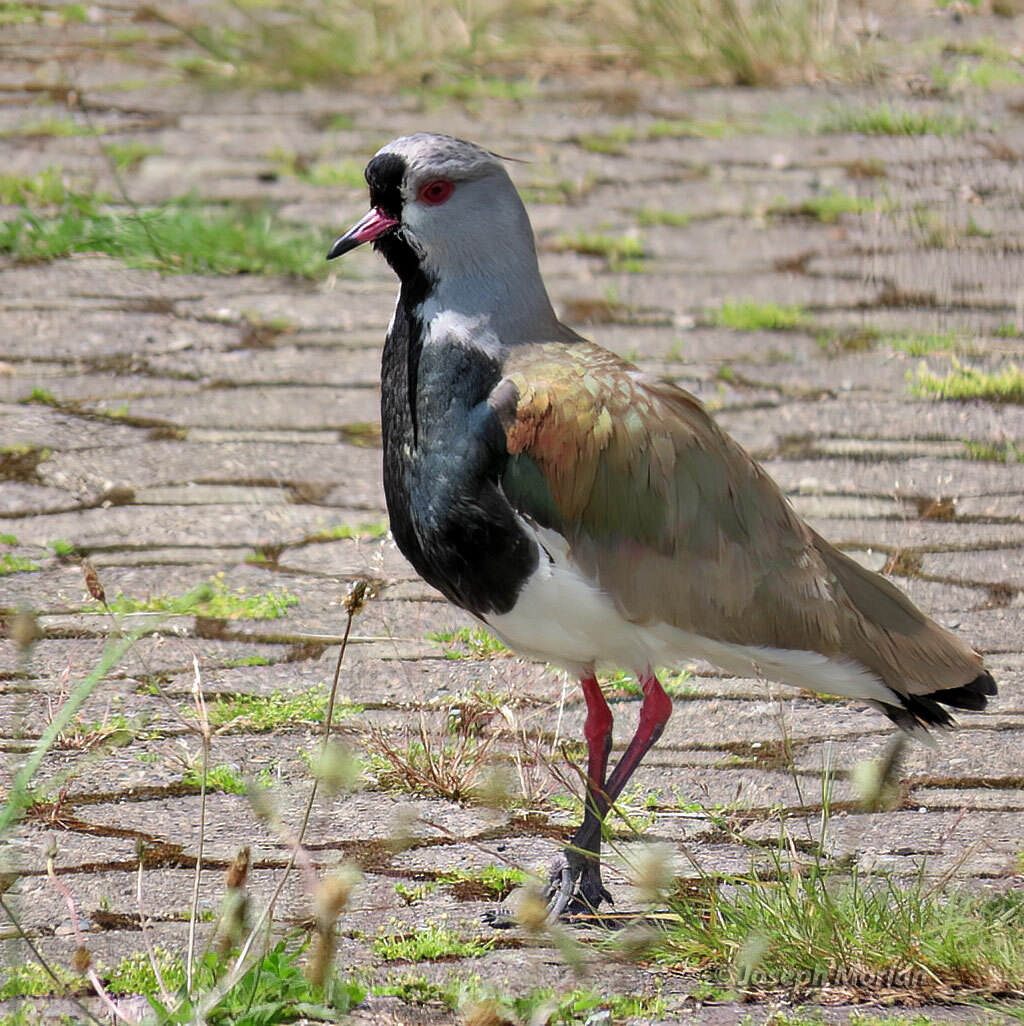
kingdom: Animalia
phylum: Chordata
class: Aves
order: Charadriiformes
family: Charadriidae
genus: Vanellus
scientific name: Vanellus chilensis
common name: Southern lapwing
